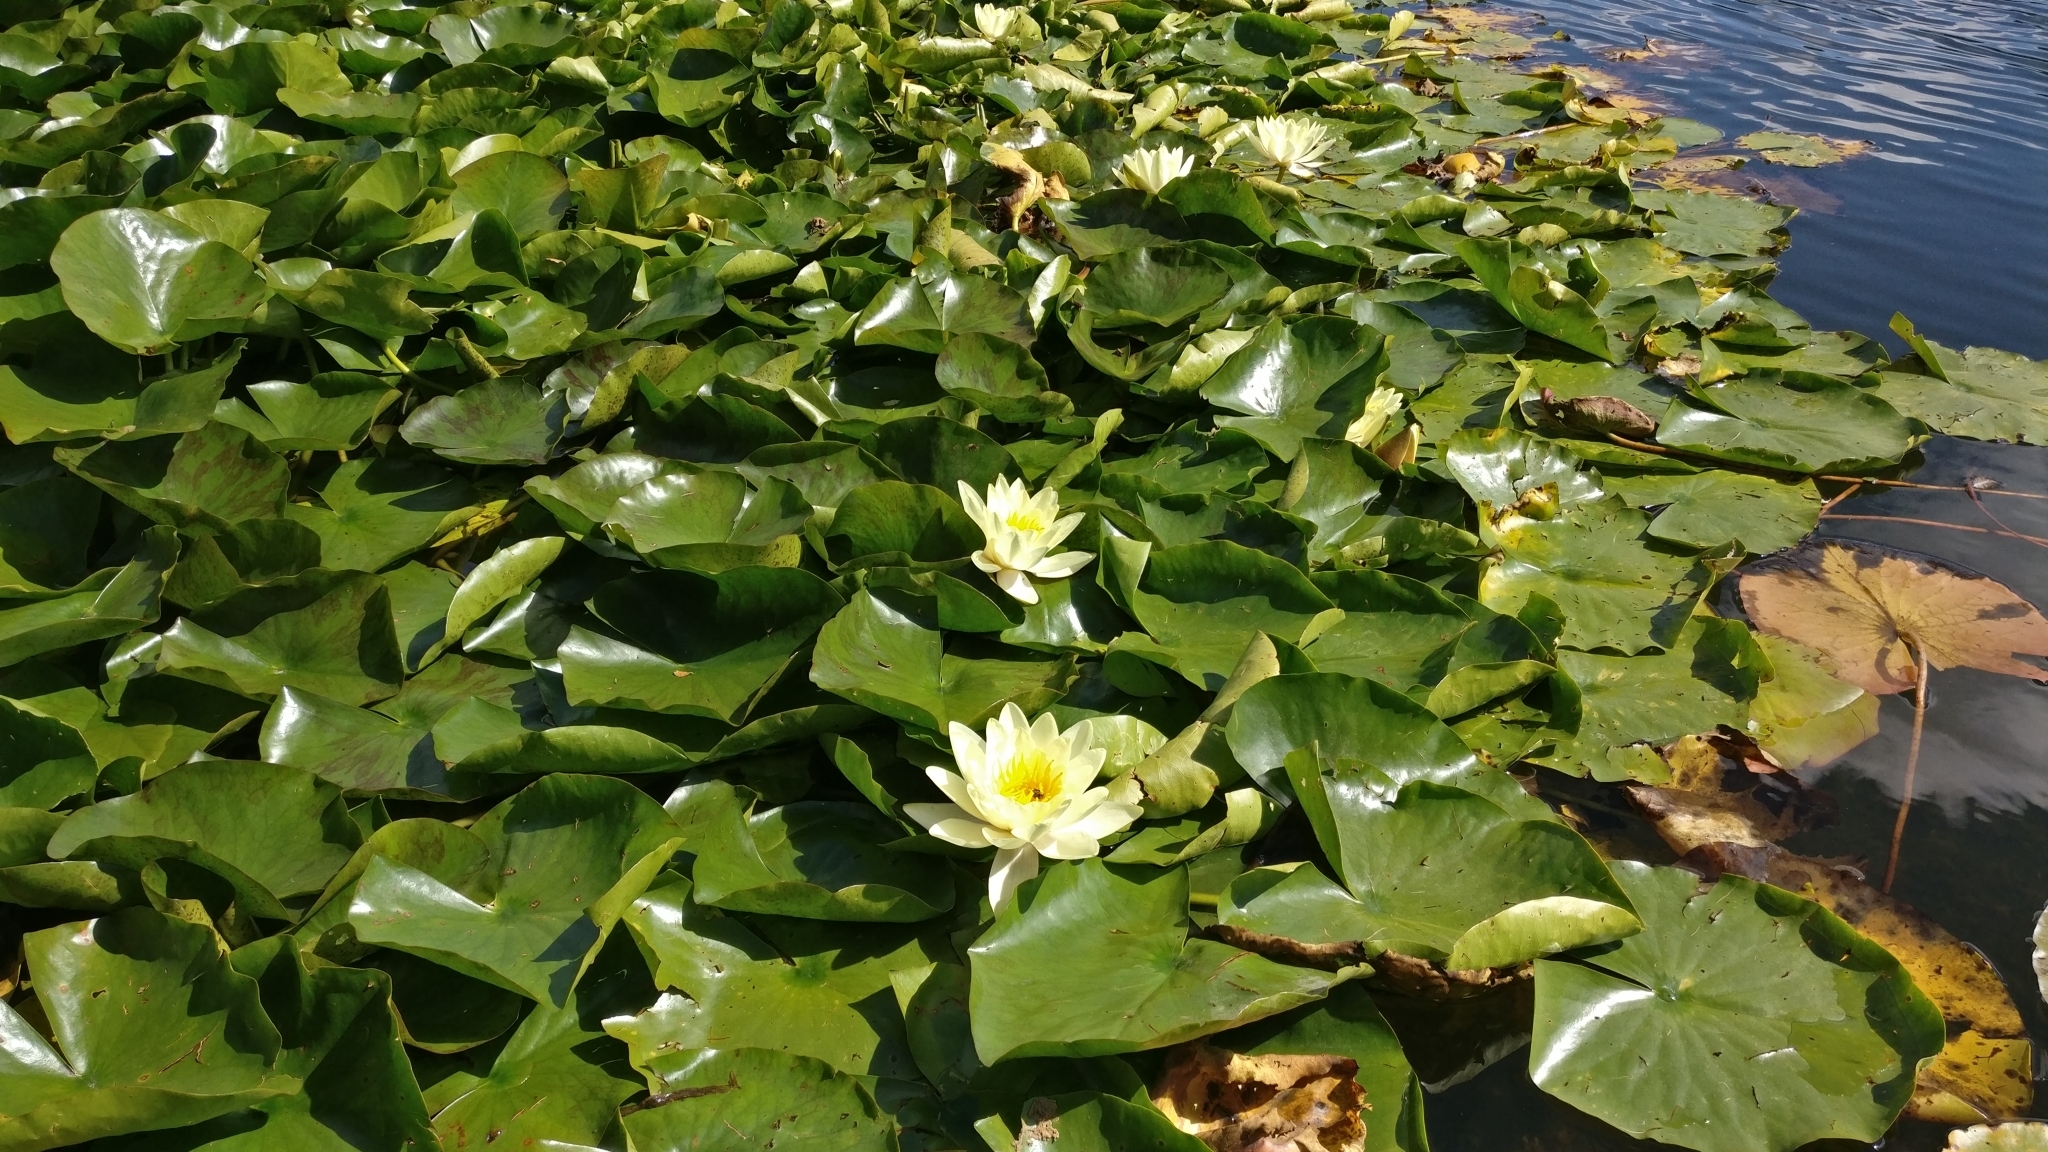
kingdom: Plantae
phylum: Tracheophyta
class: Magnoliopsida
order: Nymphaeales
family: Nymphaeaceae
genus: Nymphaea
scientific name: Nymphaea alba
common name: White water-lily
